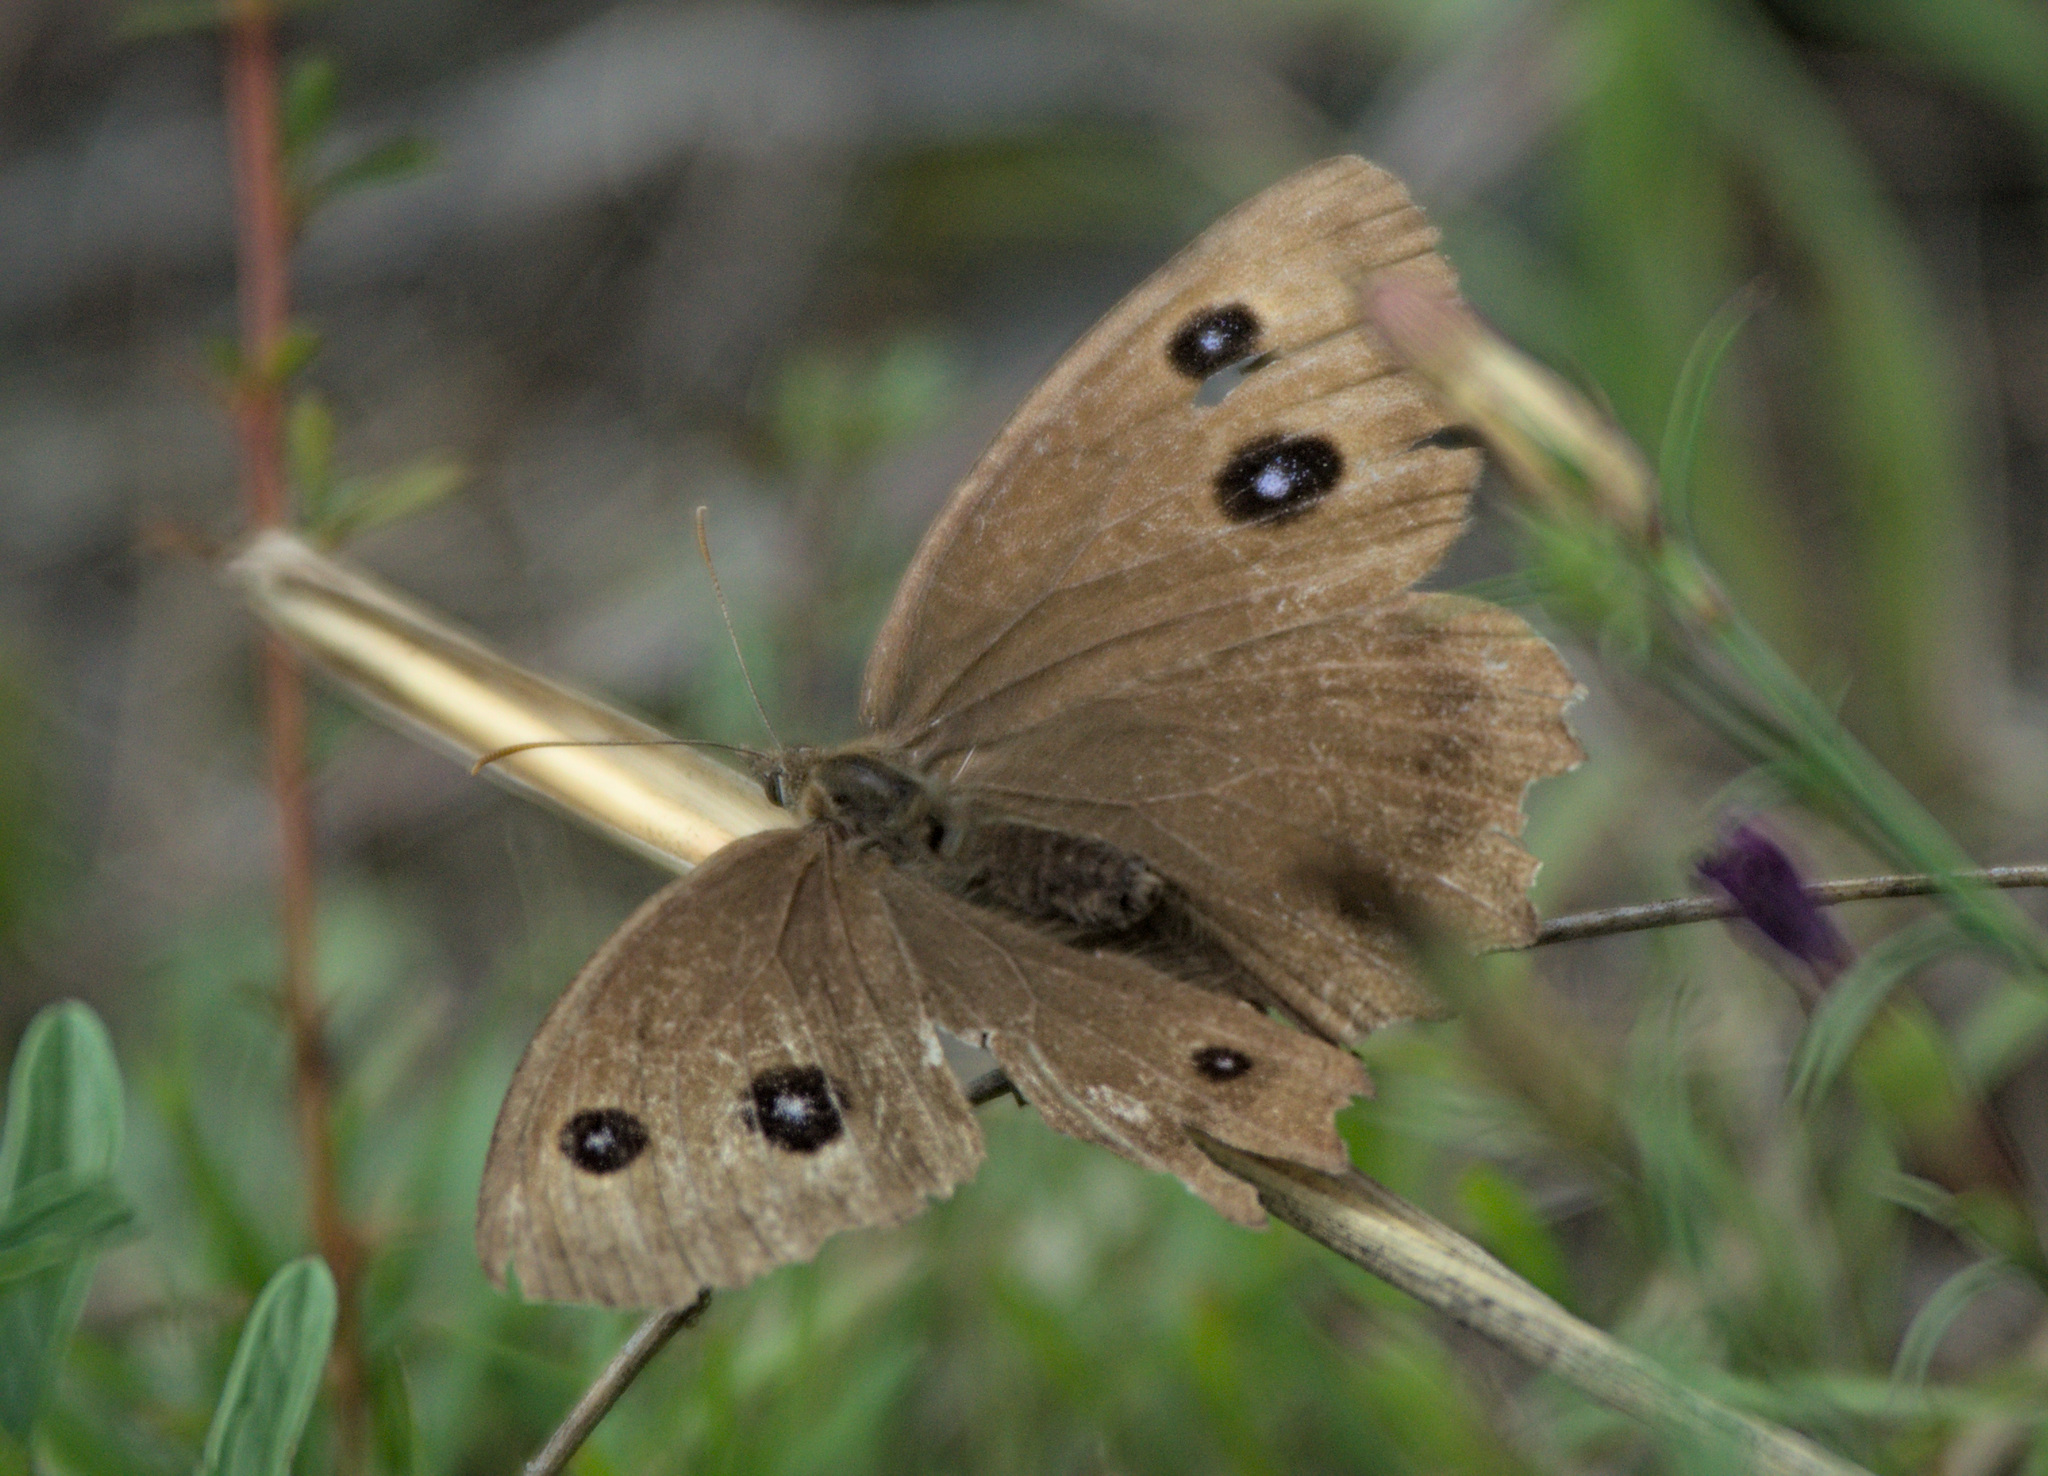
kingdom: Animalia
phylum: Arthropoda
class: Insecta
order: Lepidoptera
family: Nymphalidae
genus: Minois
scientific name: Minois dryas
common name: Dryad
